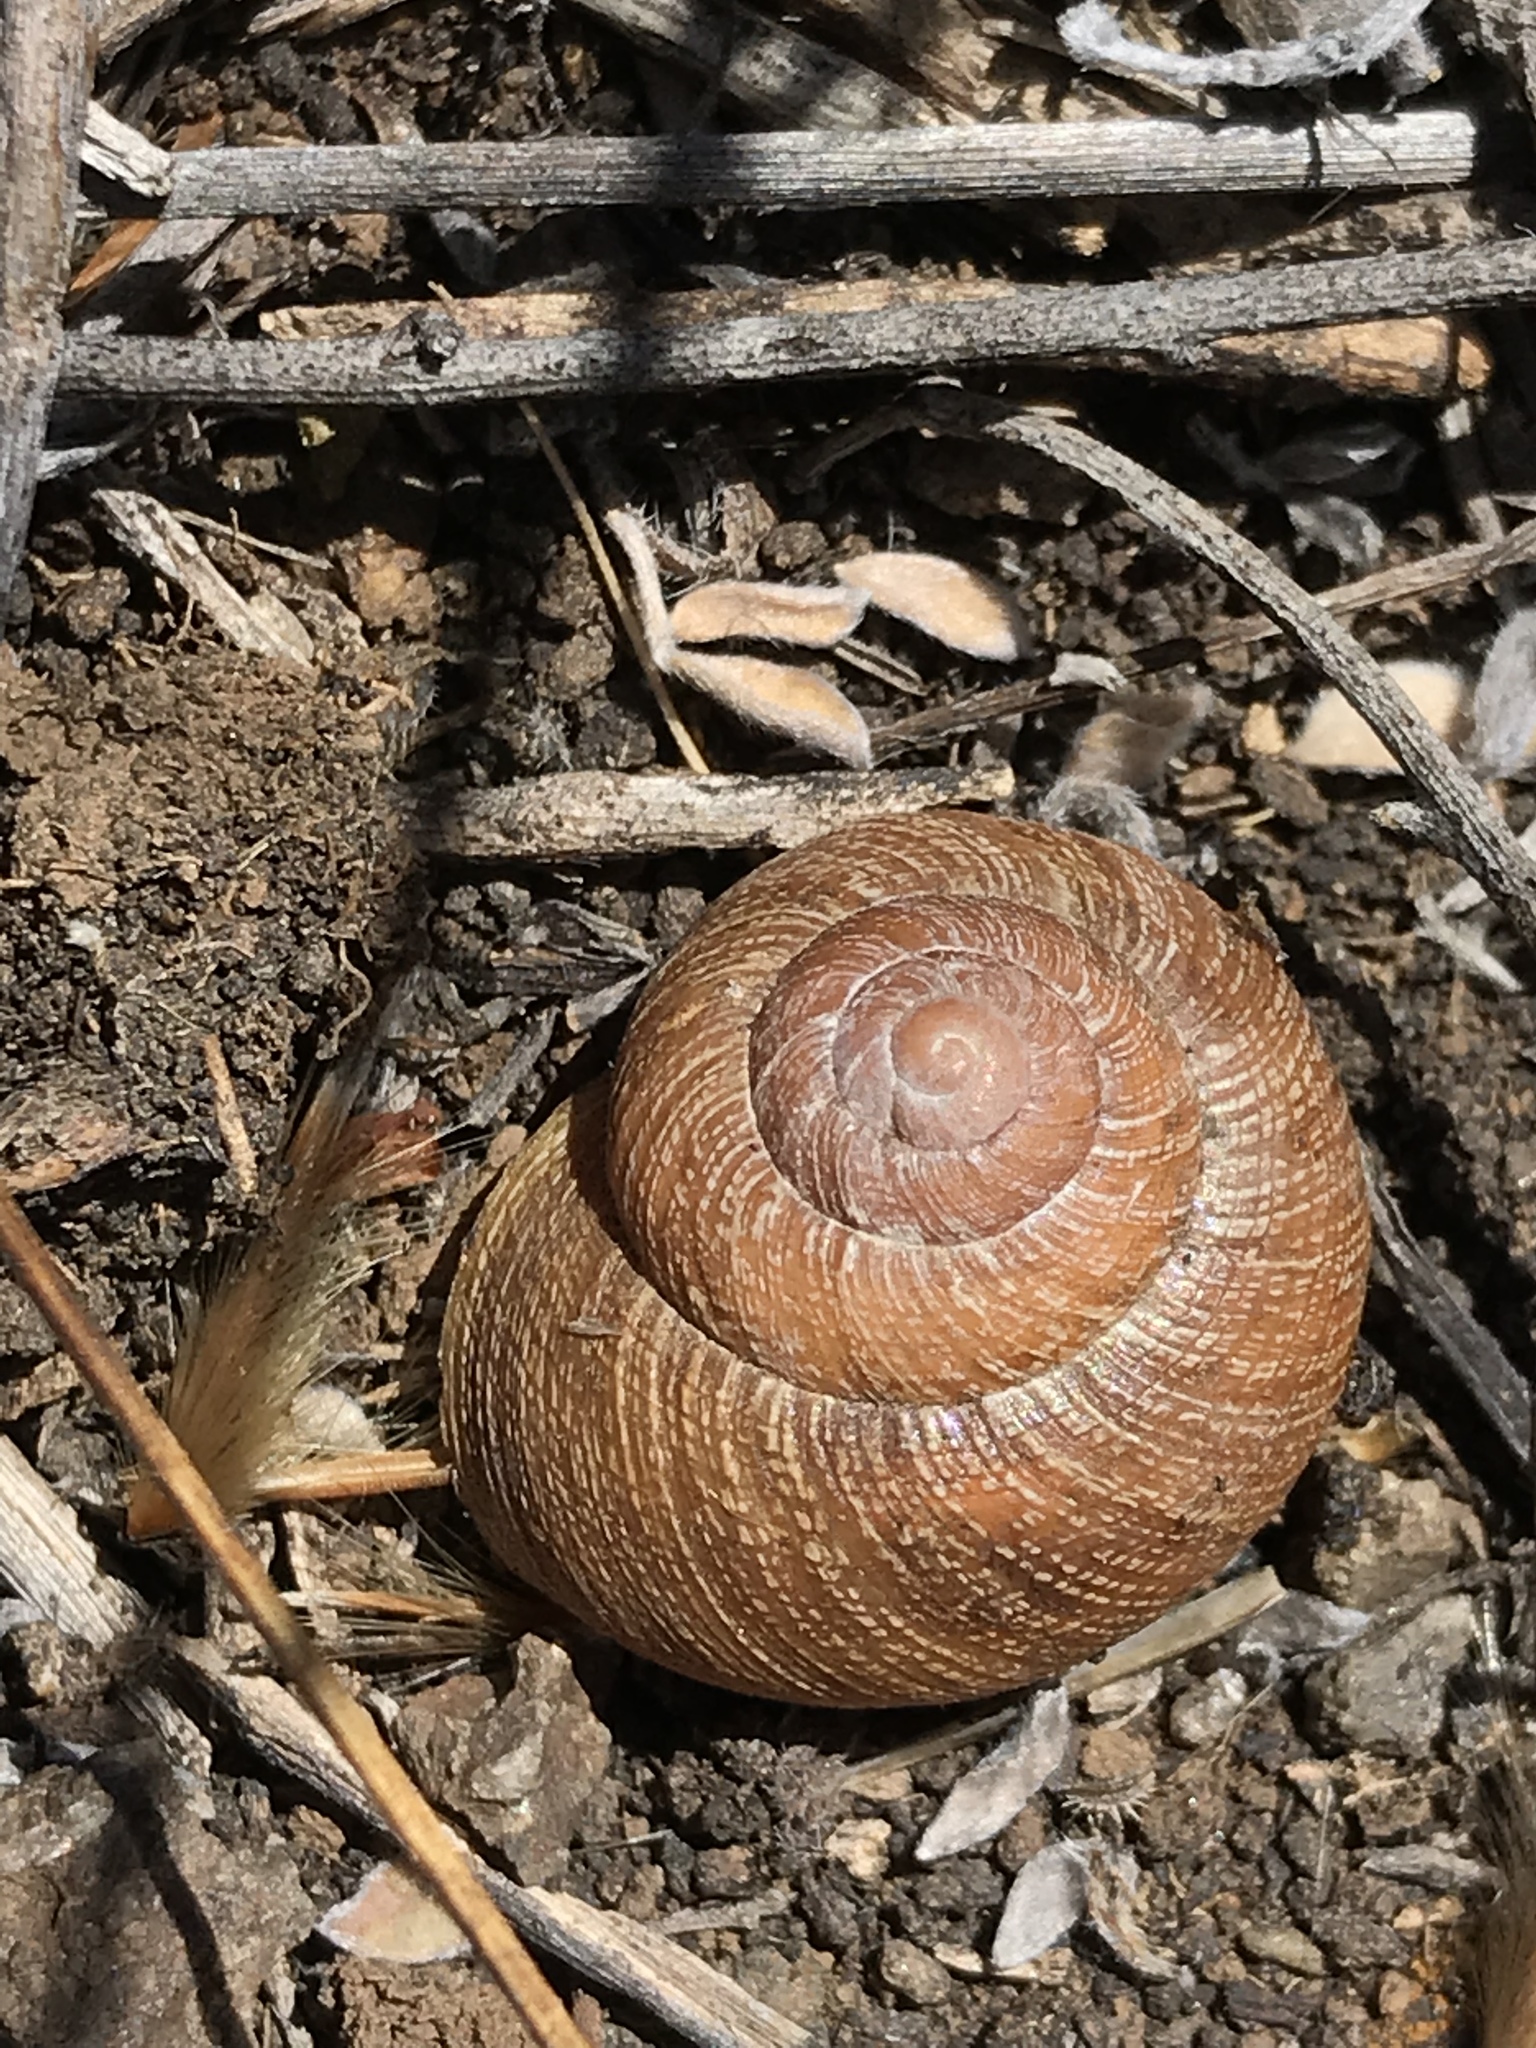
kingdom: Animalia
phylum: Mollusca
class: Gastropoda
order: Stylommatophora
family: Xanthonychidae
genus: Xerarionta
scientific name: Xerarionta intercisa
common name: Plain cactus snail
